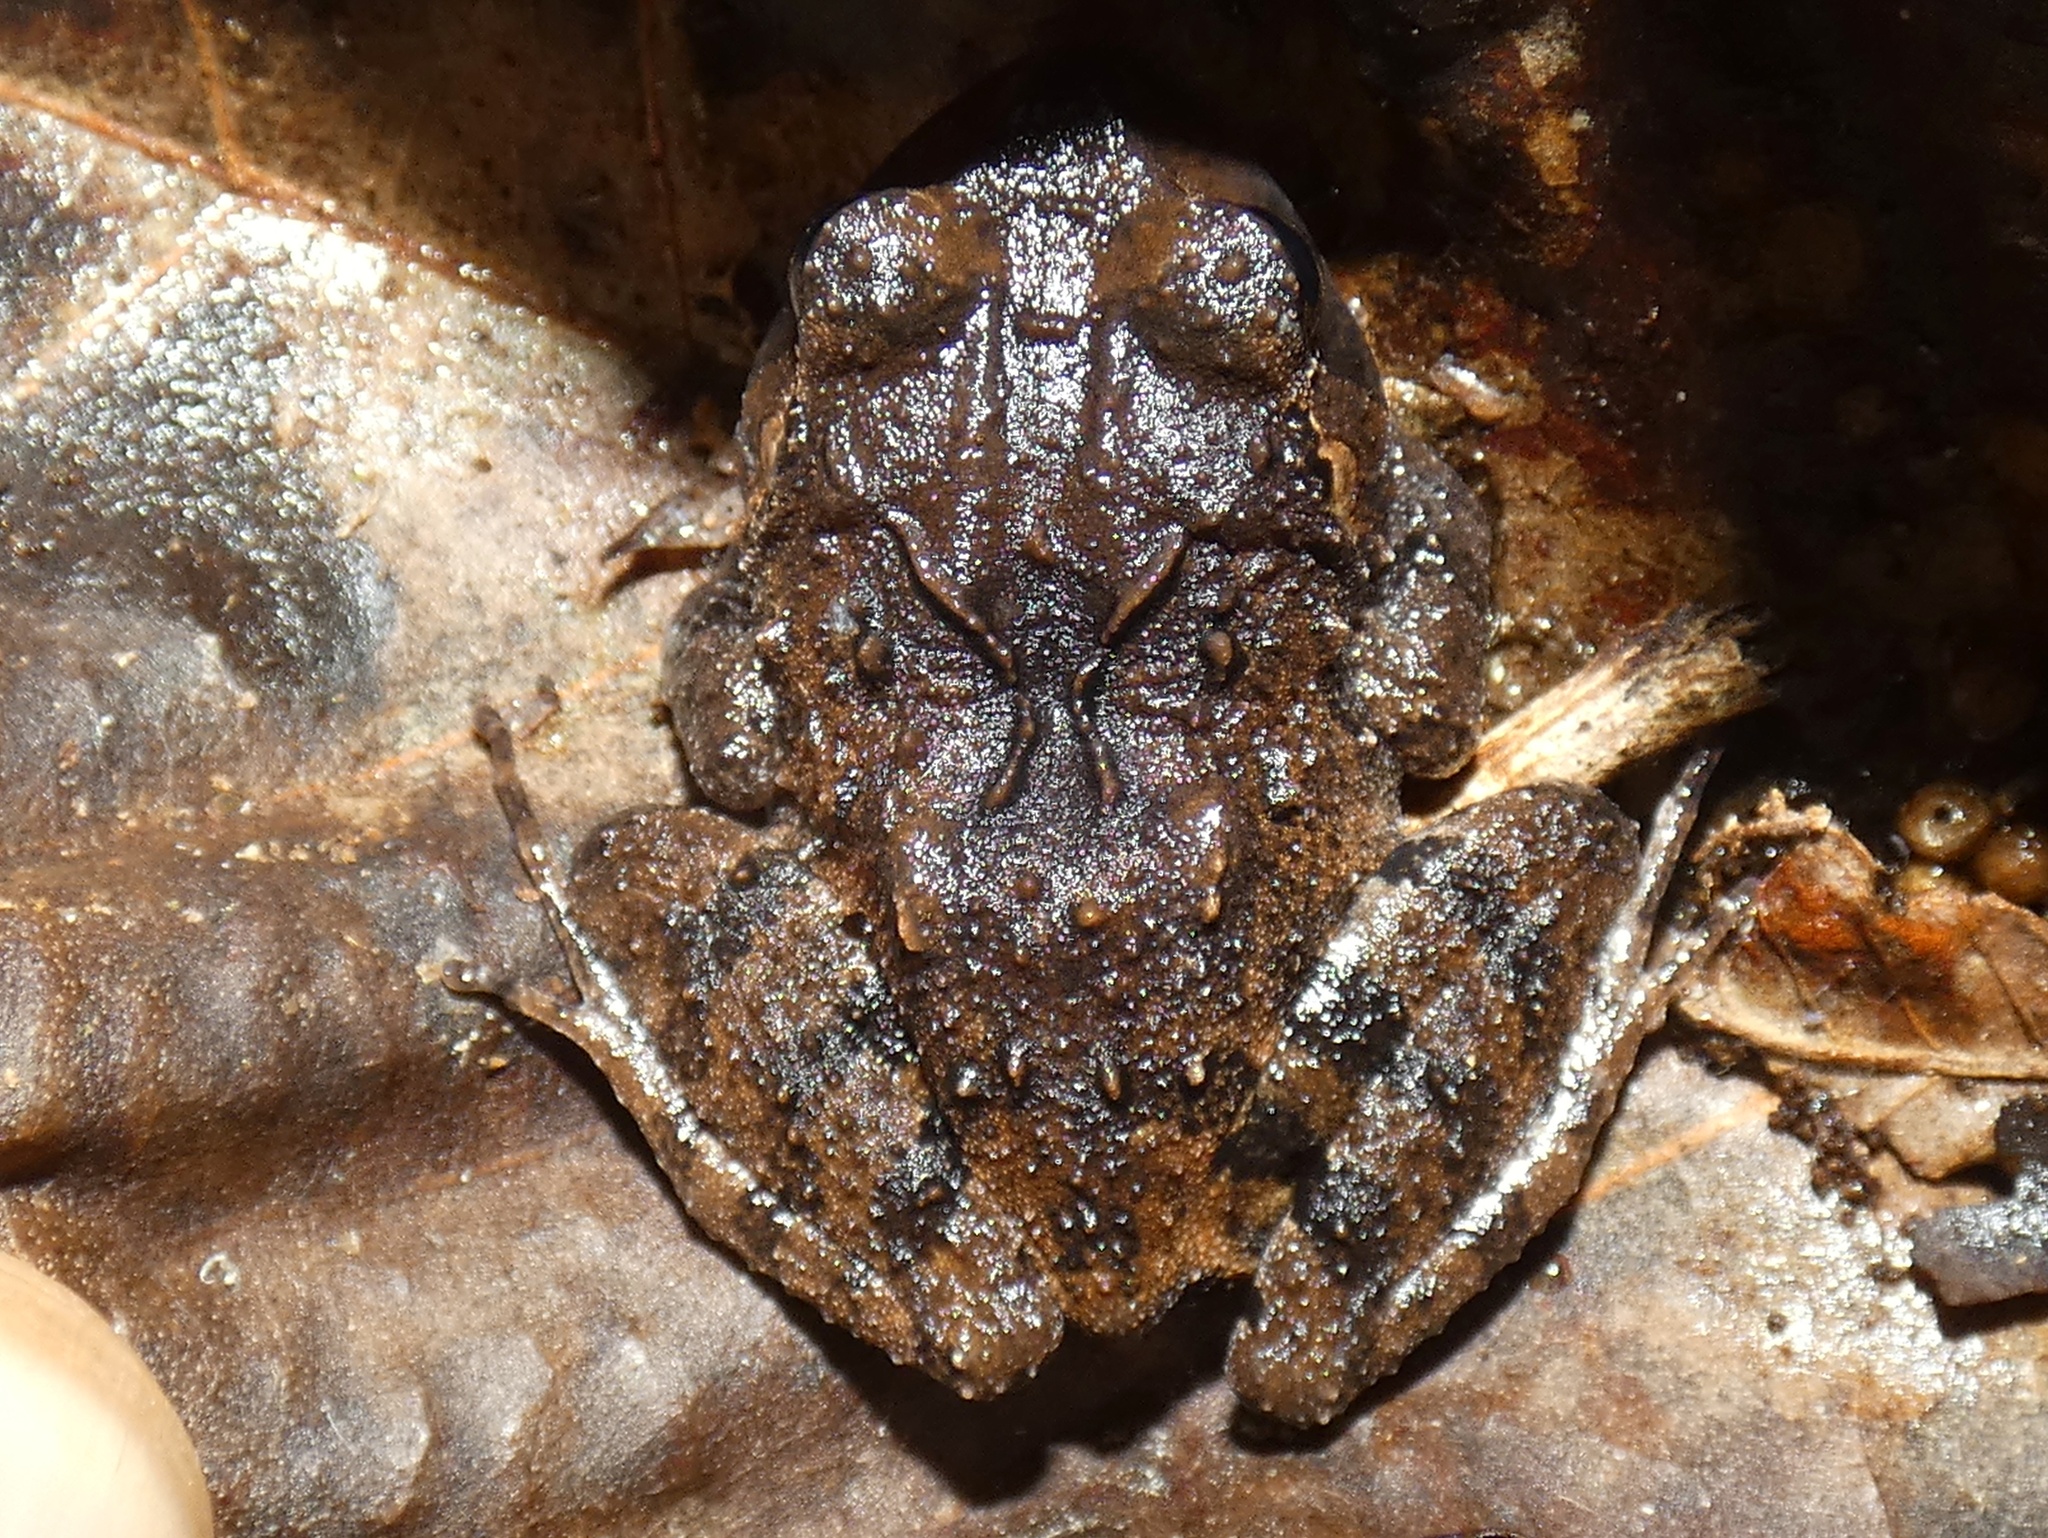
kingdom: Animalia
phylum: Chordata
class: Amphibia
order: Anura
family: Craugastoridae
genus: Craugastor
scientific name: Craugastor opimus
